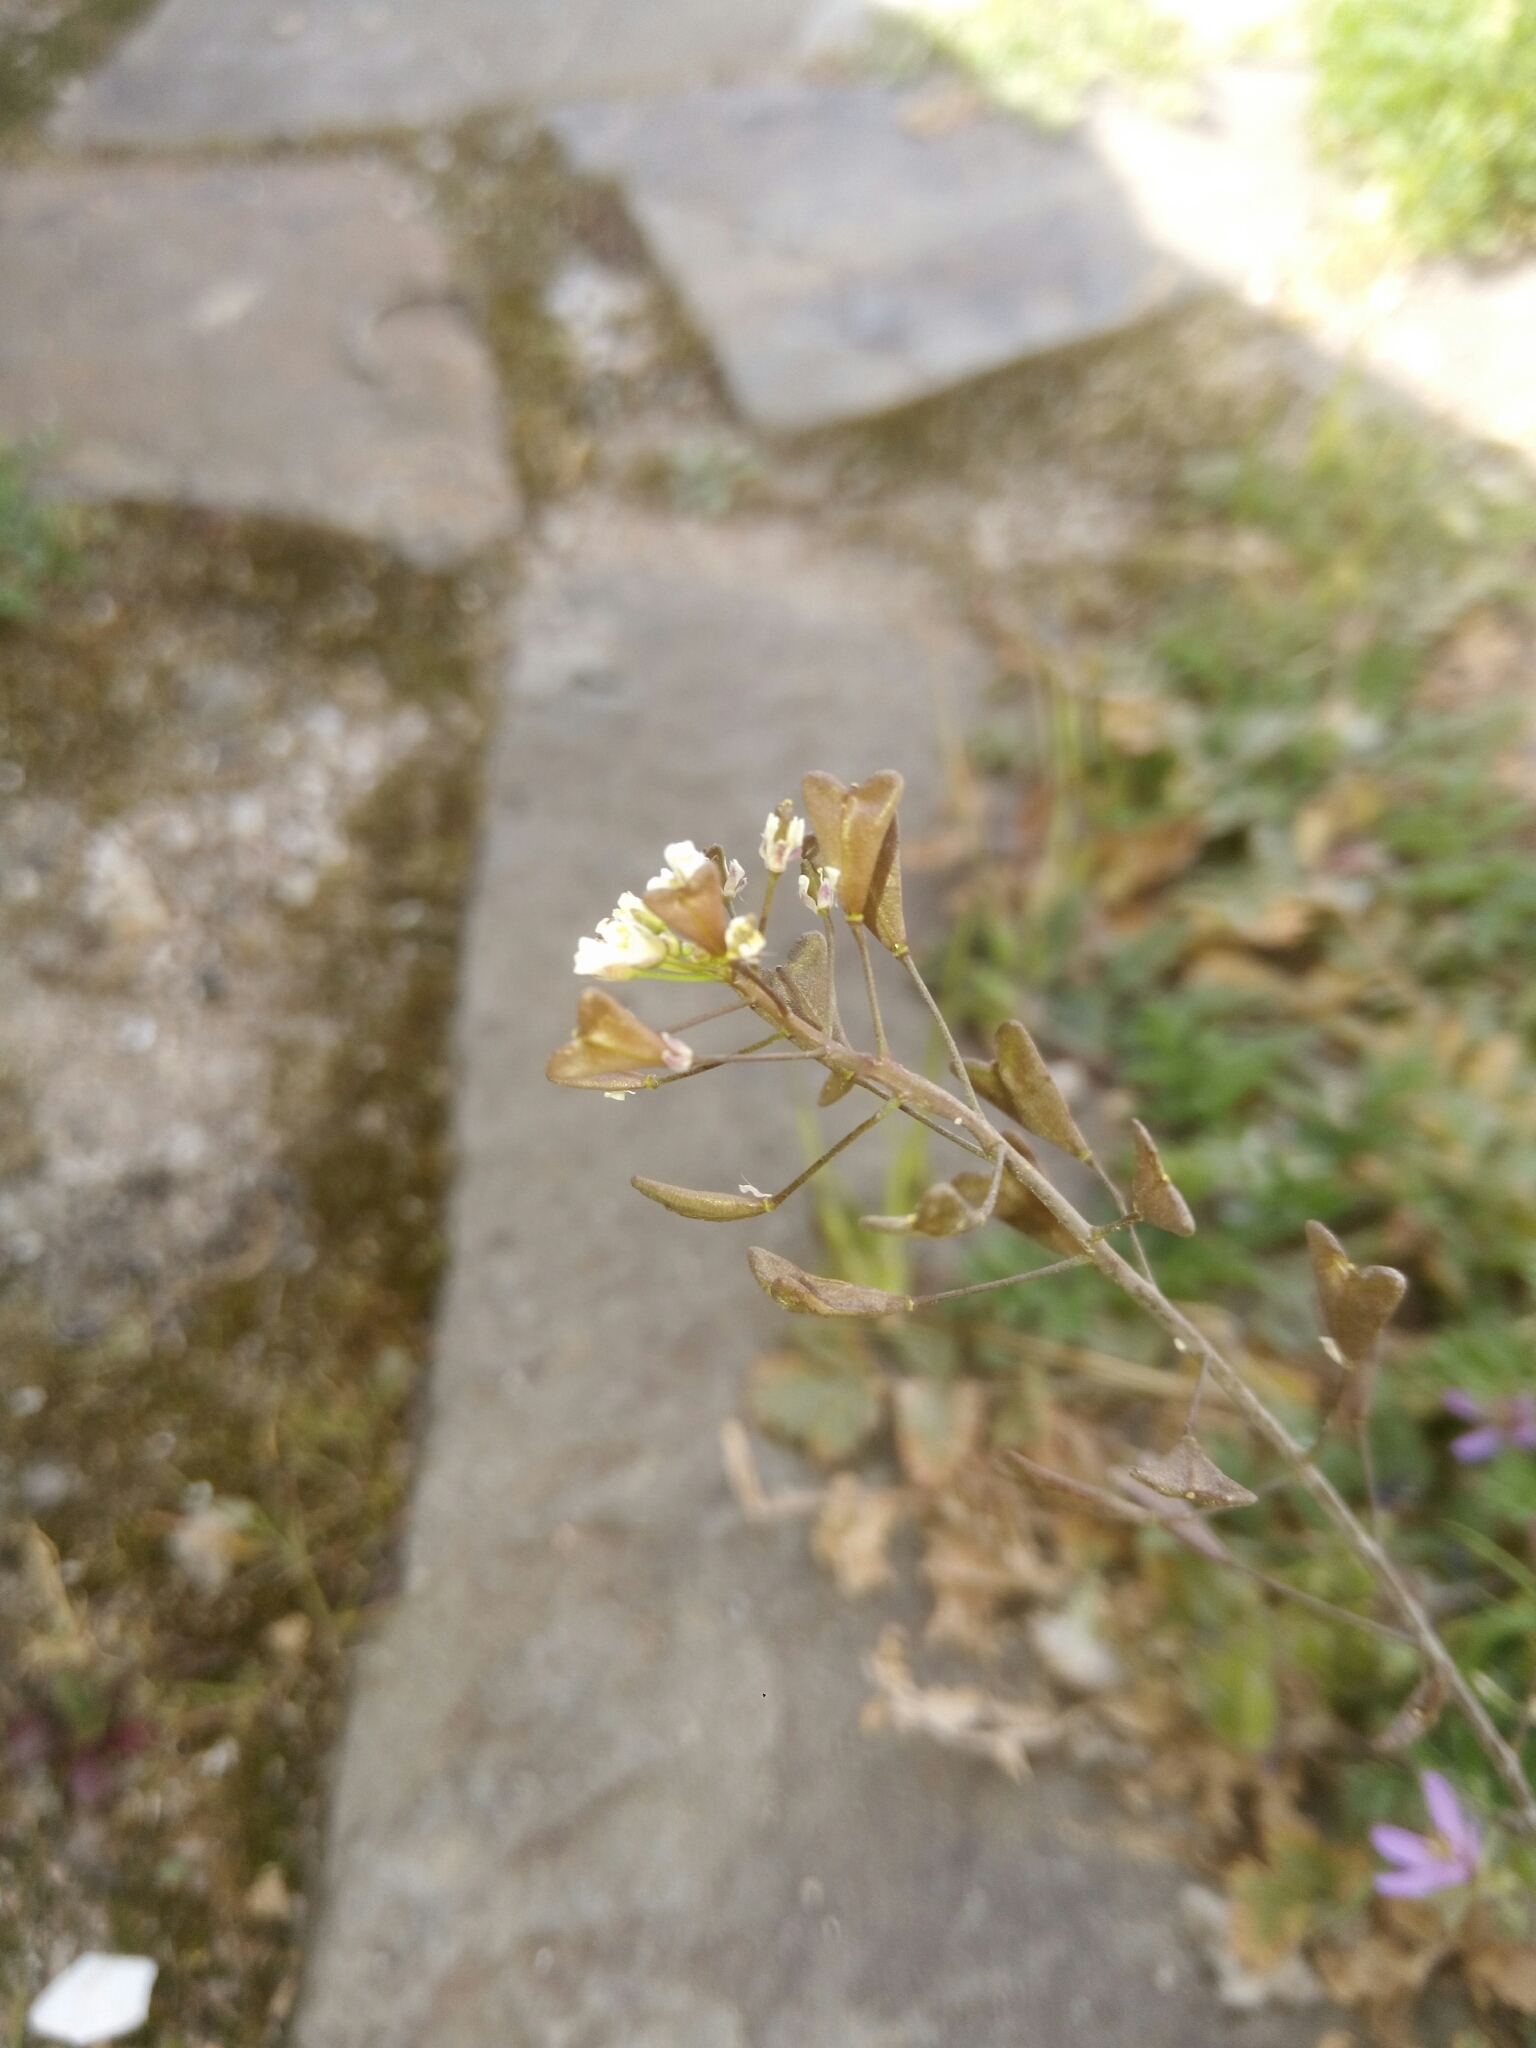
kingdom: Plantae
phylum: Tracheophyta
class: Magnoliopsida
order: Brassicales
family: Brassicaceae
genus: Capsella
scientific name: Capsella bursa-pastoris
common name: Shepherd's purse
